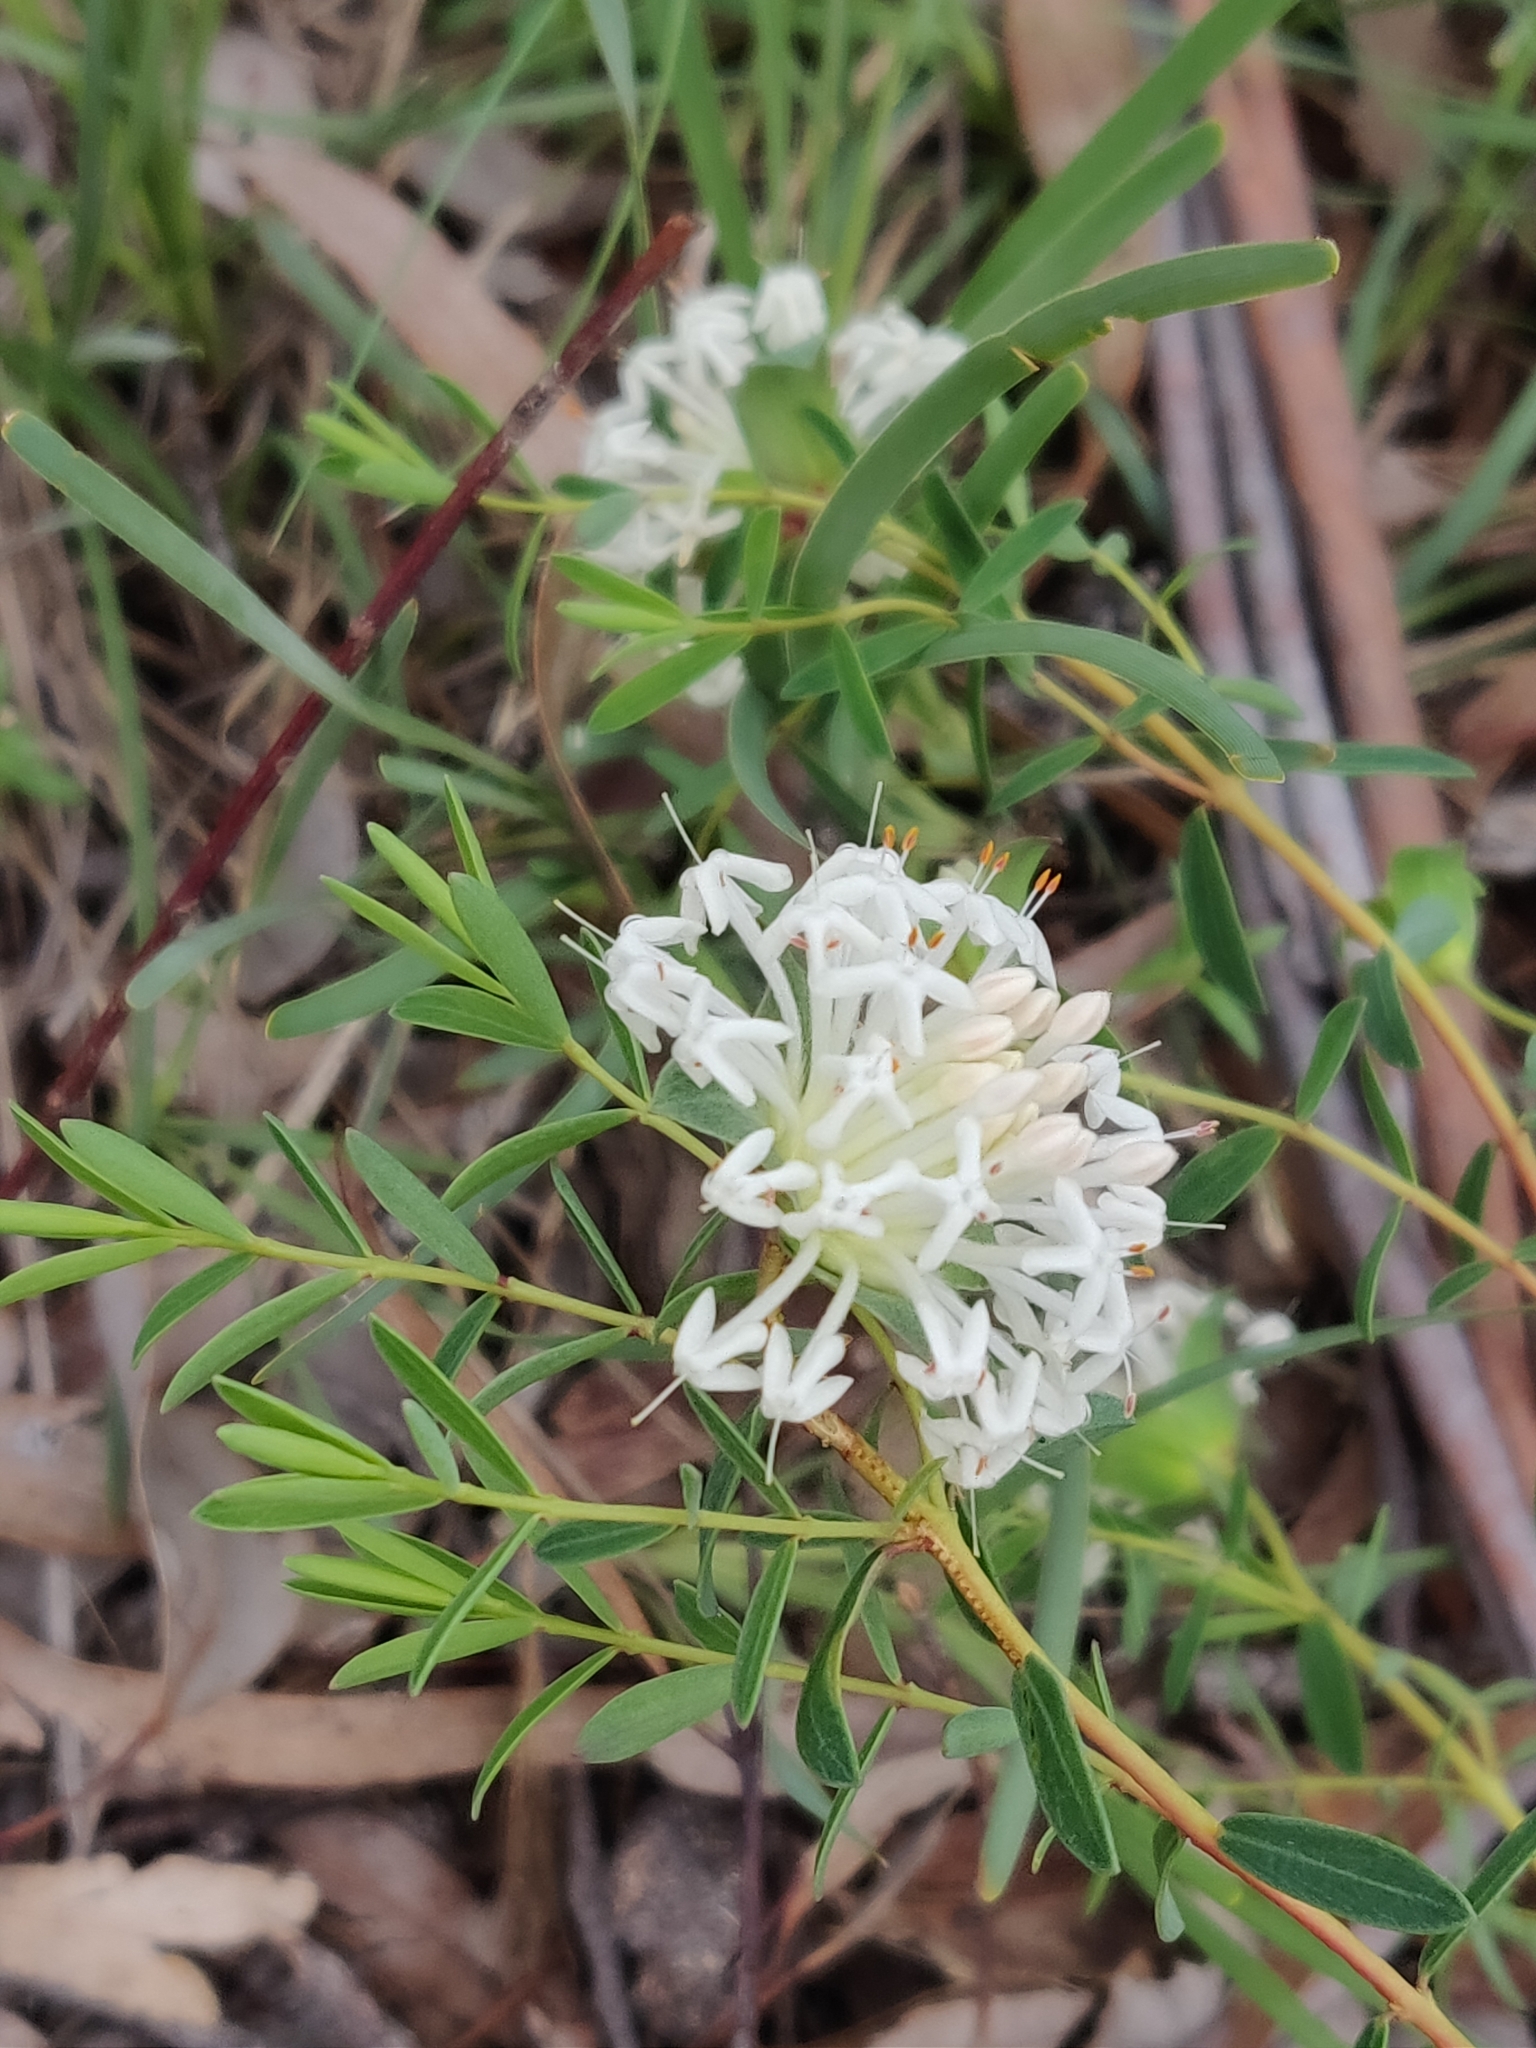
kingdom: Plantae
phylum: Tracheophyta
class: Magnoliopsida
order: Malvales
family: Thymelaeaceae
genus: Pimelea
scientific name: Pimelea linifolia
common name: Queen-of-the-bush
